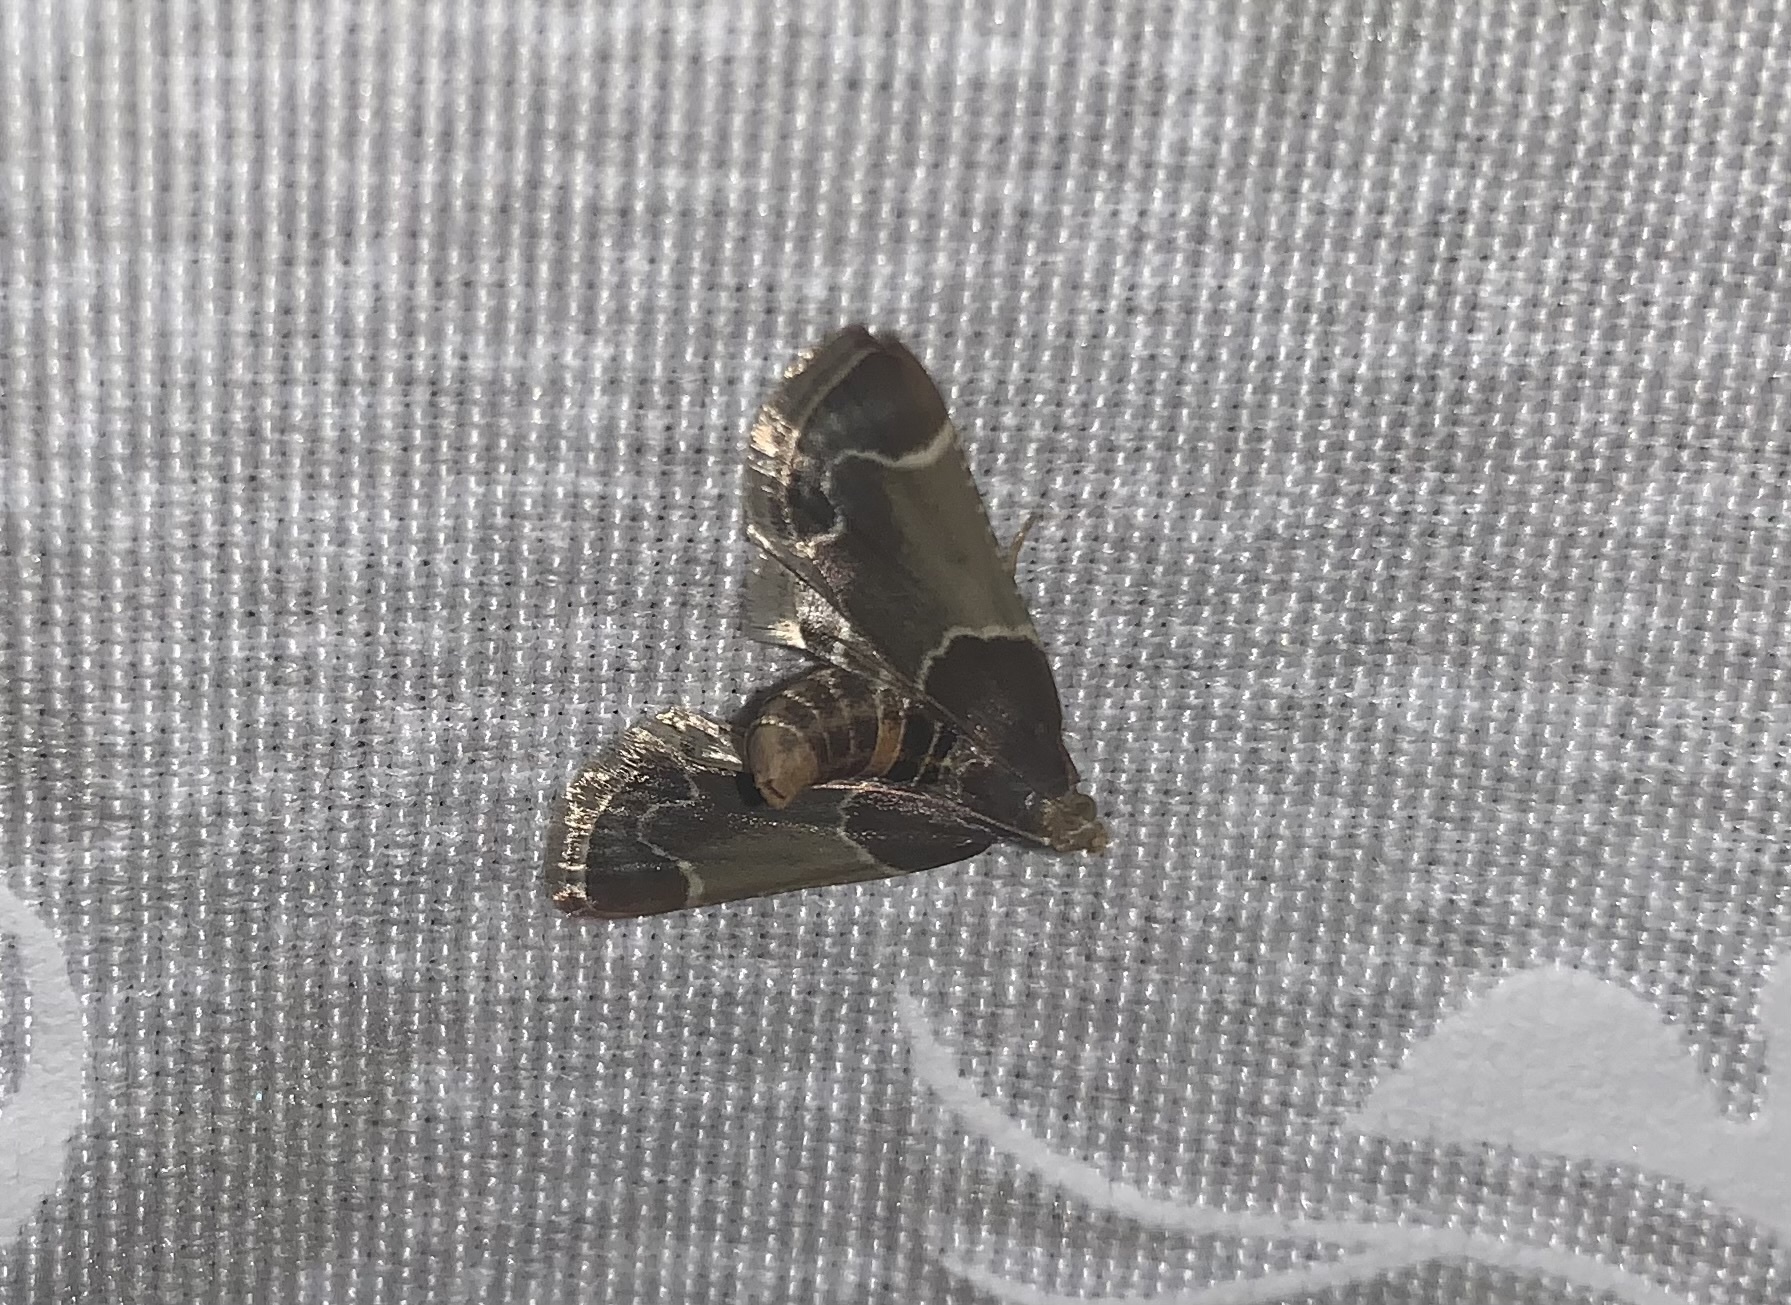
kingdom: Animalia
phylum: Arthropoda
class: Insecta
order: Lepidoptera
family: Pyralidae
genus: Pyralis
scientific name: Pyralis farinalis
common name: Meal moth
